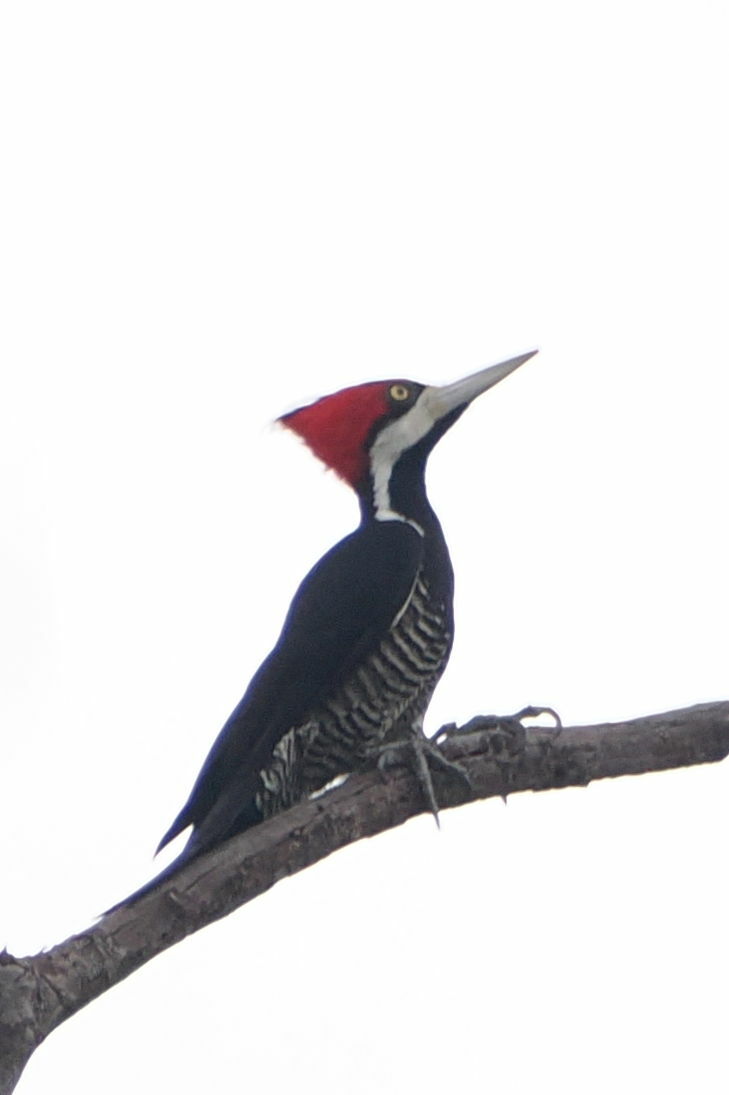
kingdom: Animalia
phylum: Chordata
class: Aves
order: Piciformes
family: Picidae
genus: Campephilus
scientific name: Campephilus melanoleucos
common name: Crimson-crested woodpecker
